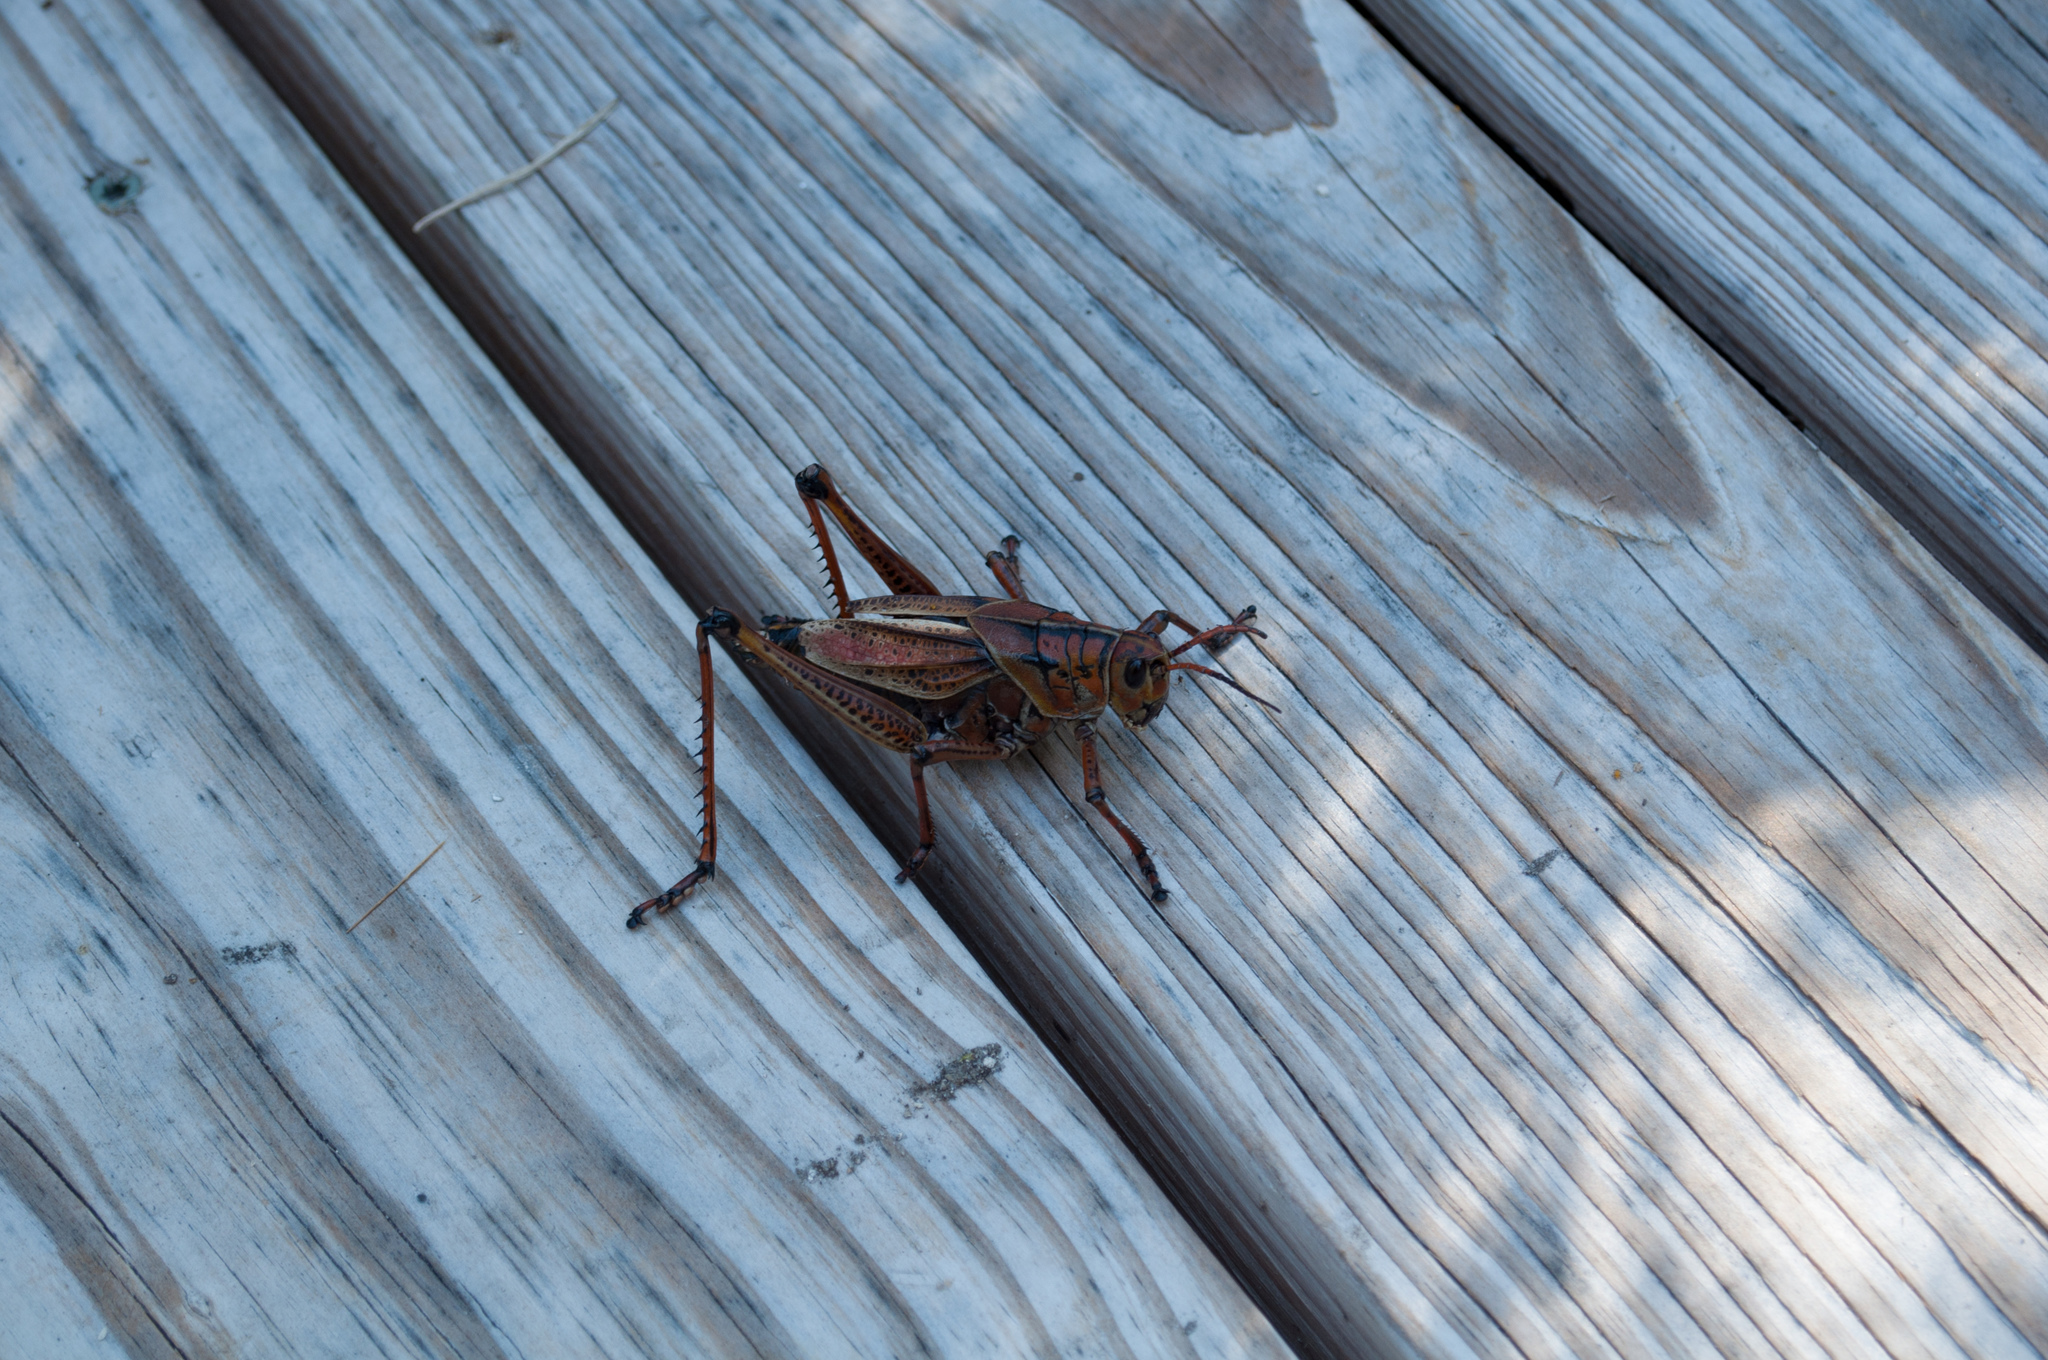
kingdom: Animalia
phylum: Arthropoda
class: Insecta
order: Orthoptera
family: Romaleidae
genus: Romalea
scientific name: Romalea microptera
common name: Eastern lubber grasshopper
